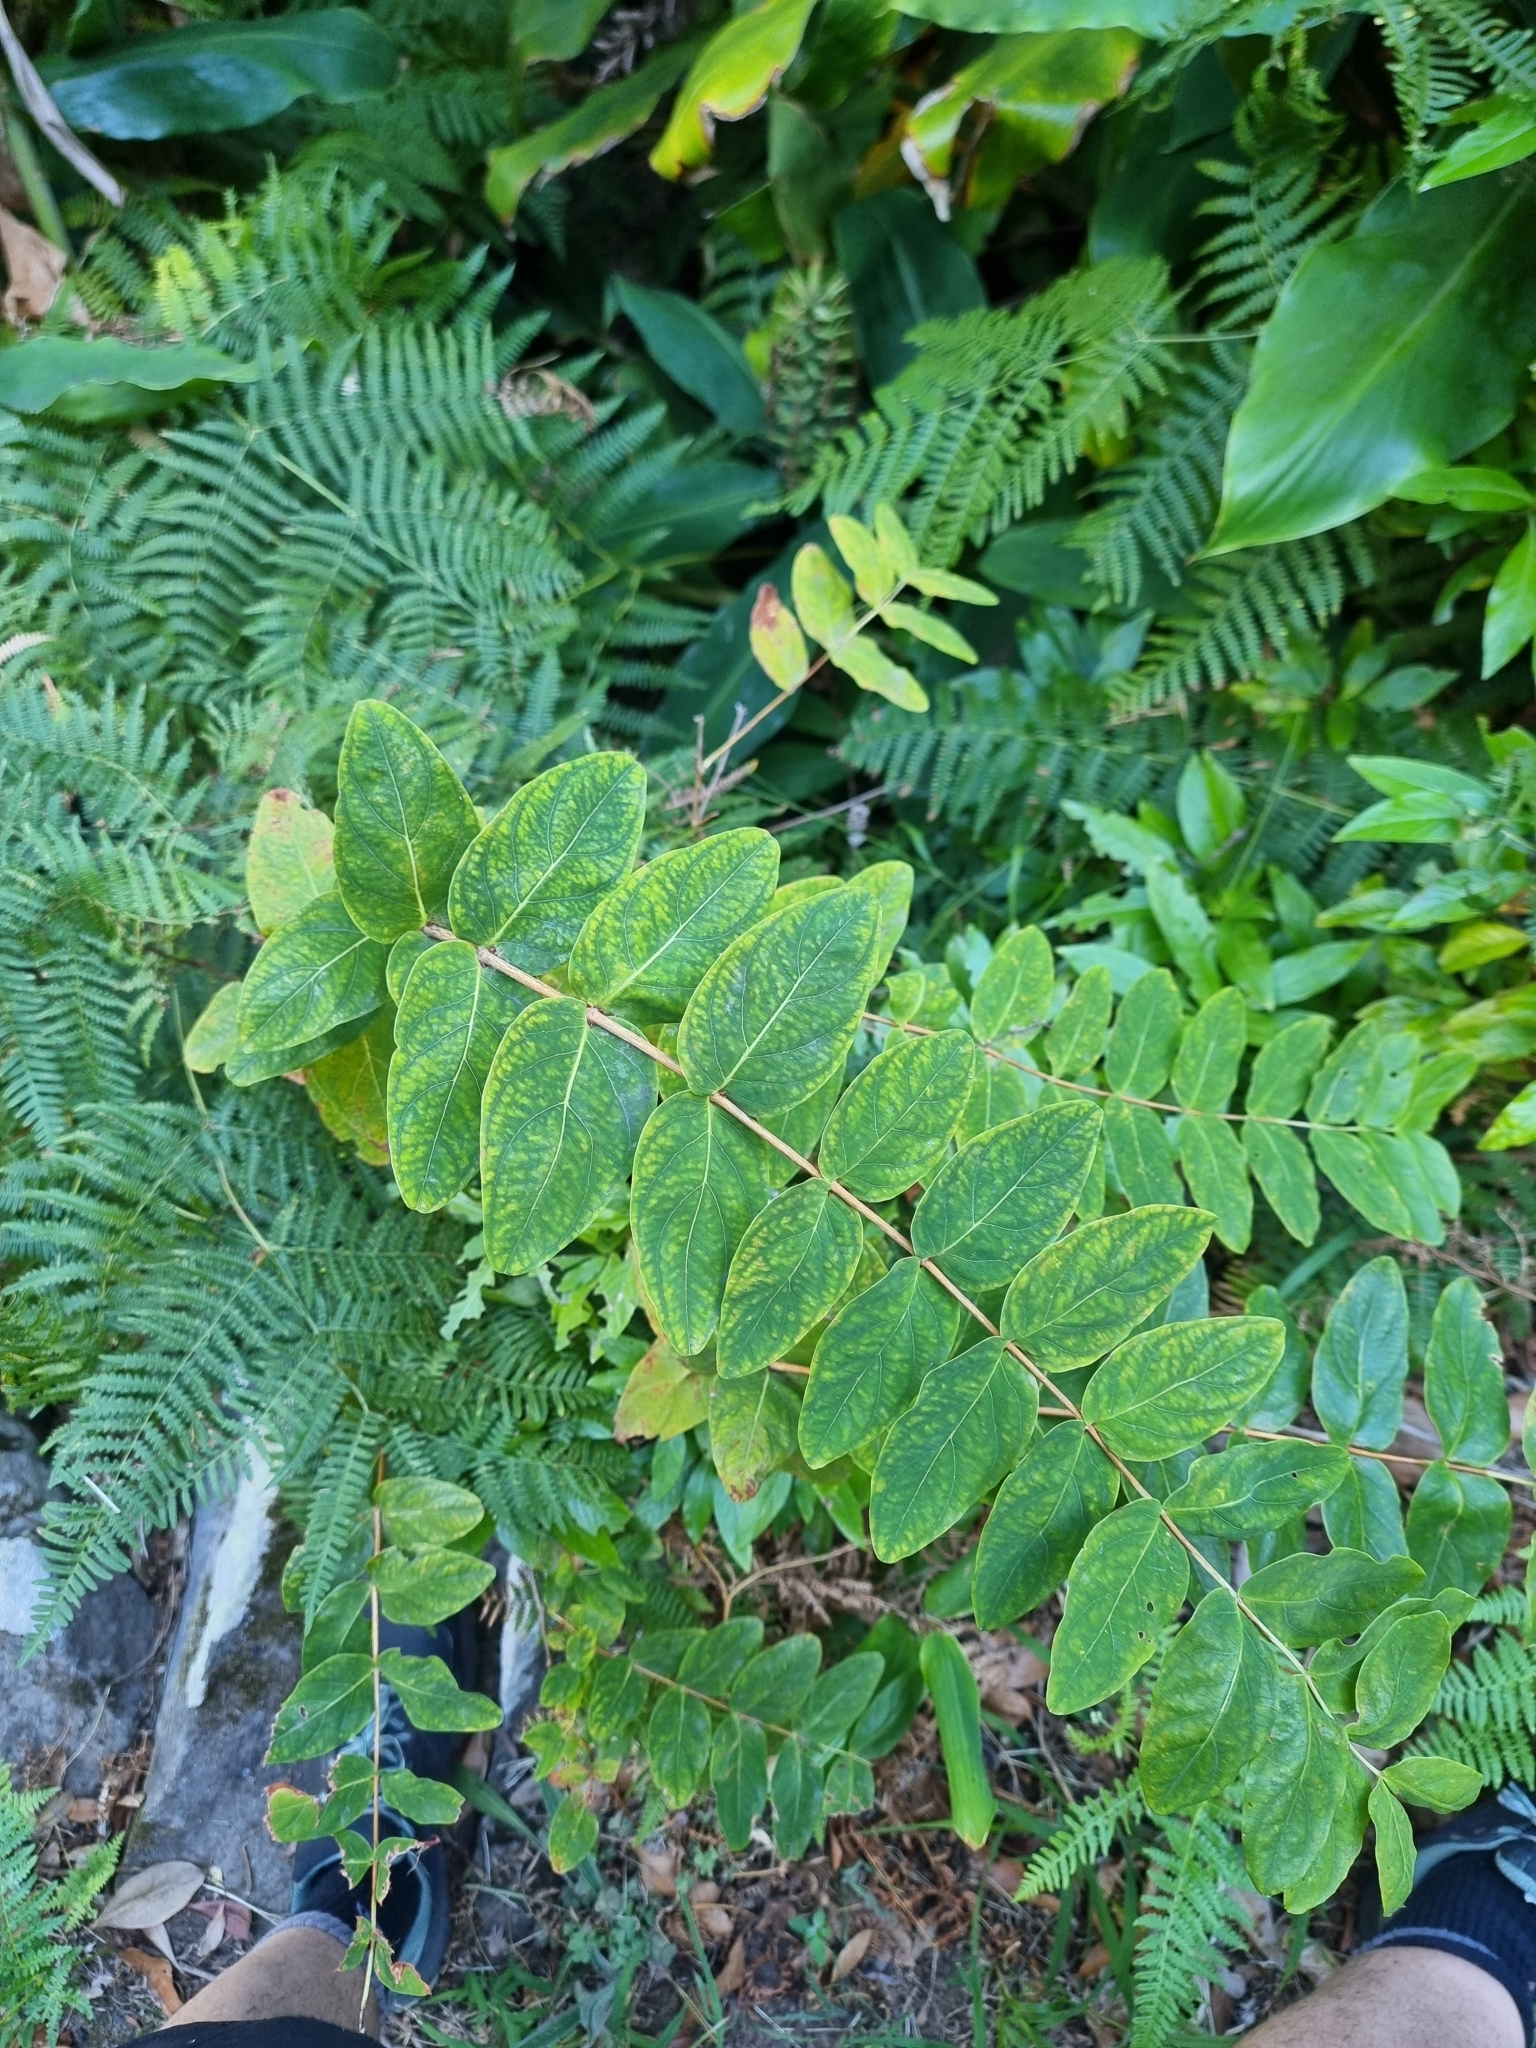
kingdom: Plantae
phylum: Tracheophyta
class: Magnoliopsida
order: Malpighiales
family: Hypericaceae
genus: Hypericum
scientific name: Hypericum grandifolium
